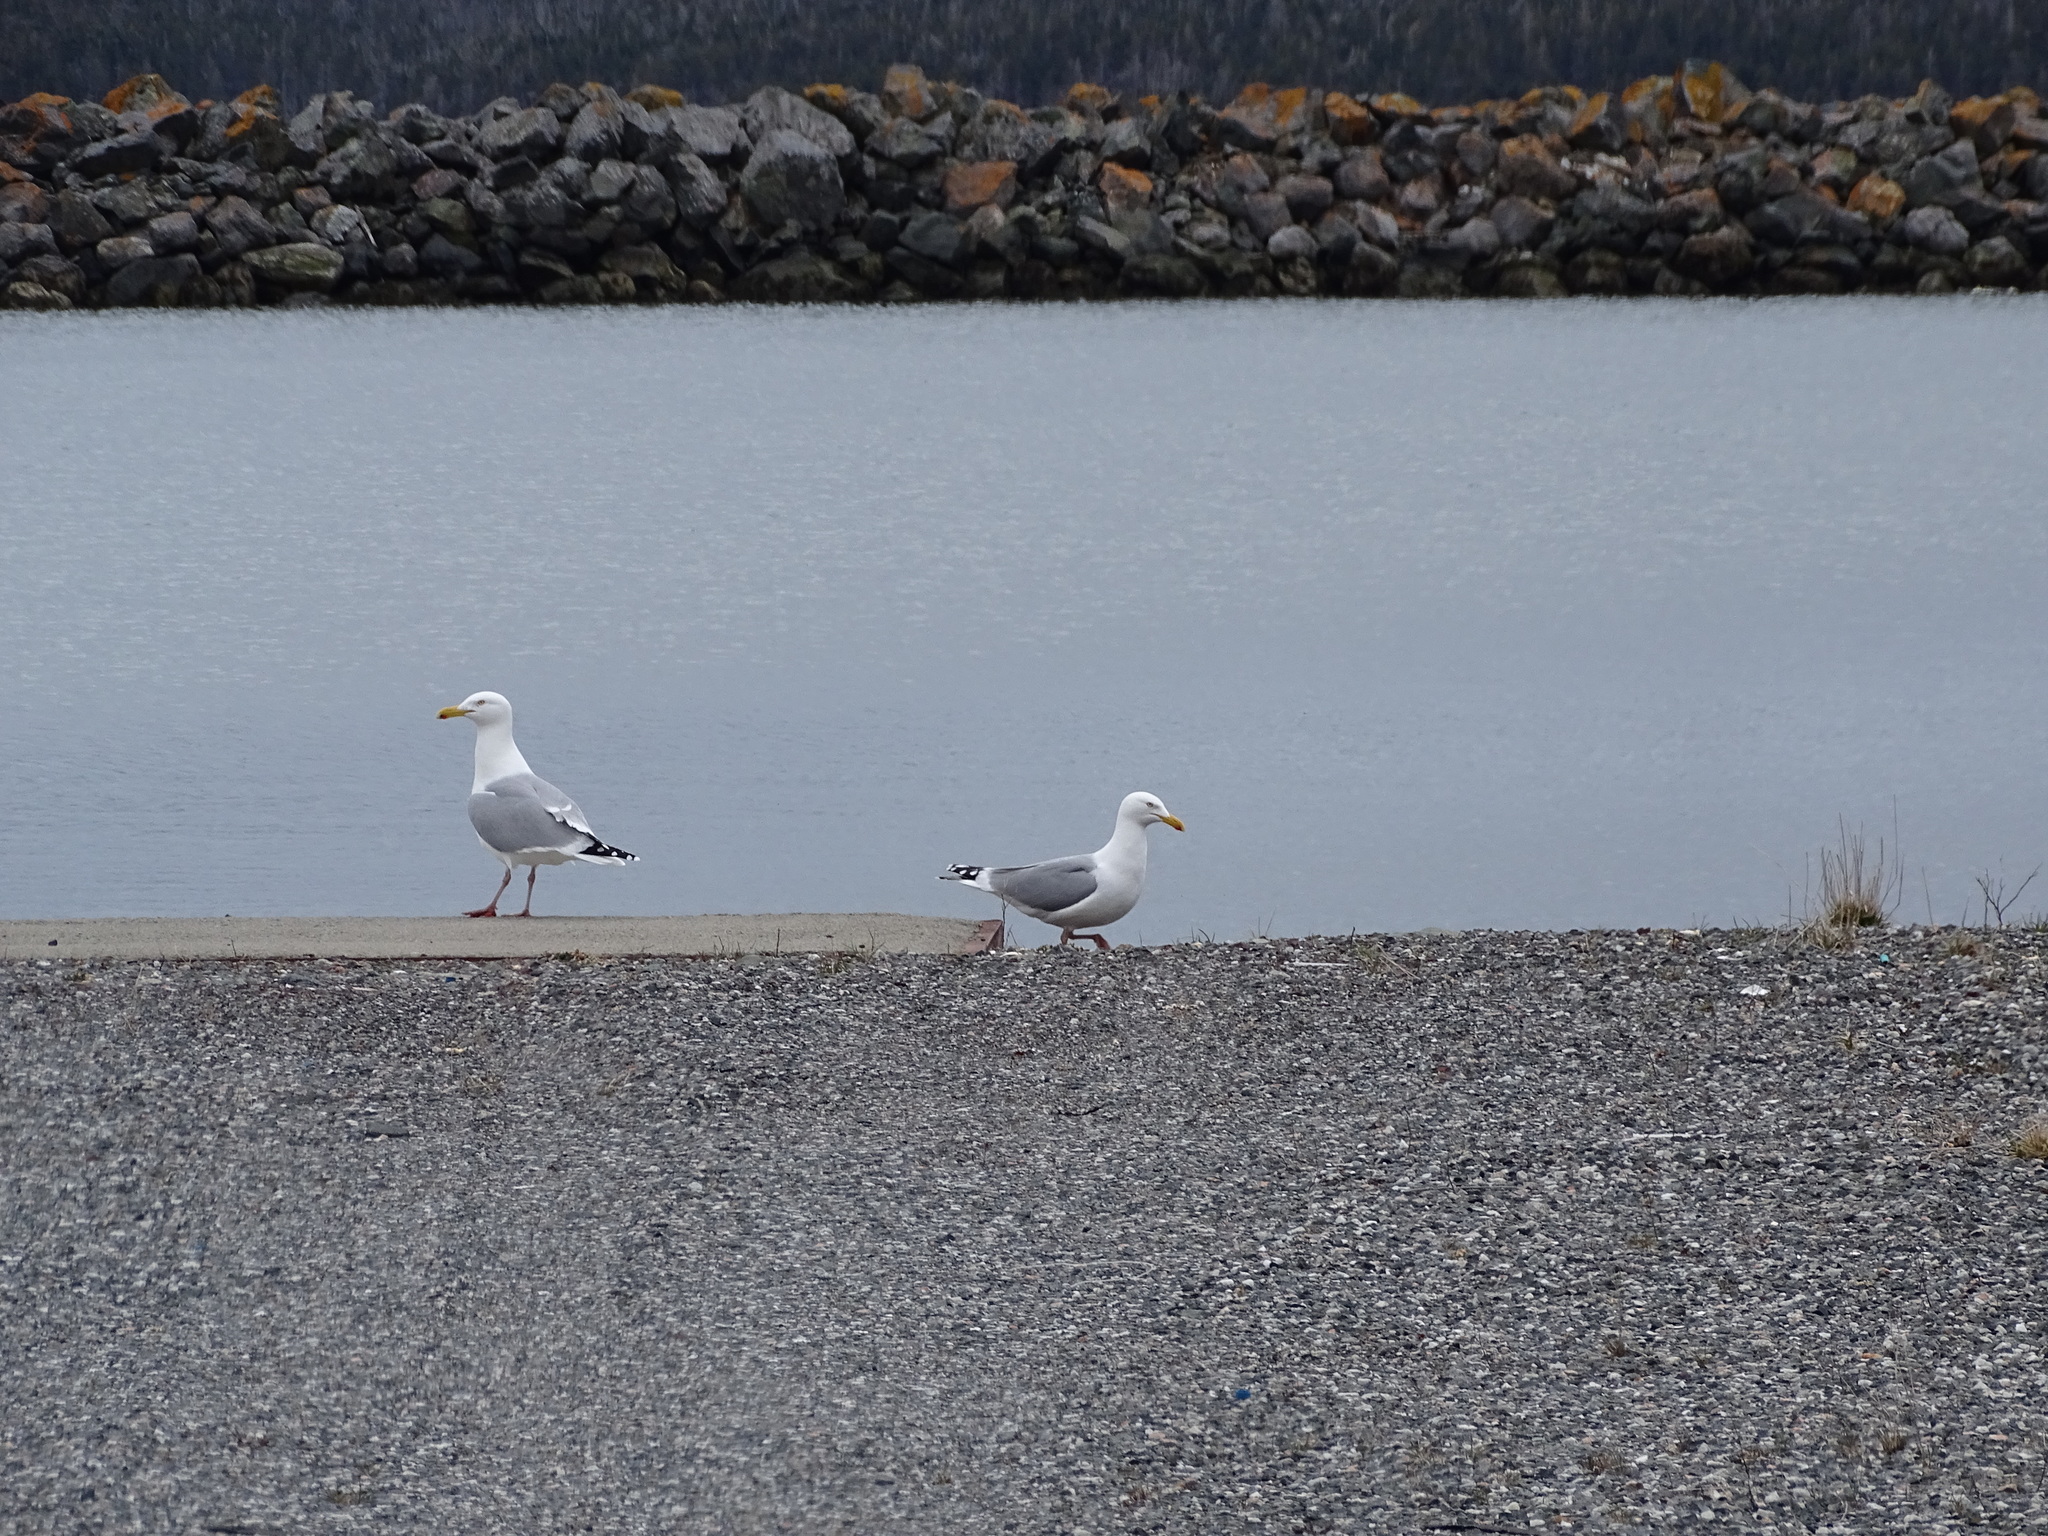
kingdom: Animalia
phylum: Chordata
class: Aves
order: Charadriiformes
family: Laridae
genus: Larus
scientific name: Larus argentatus
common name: Herring gull
